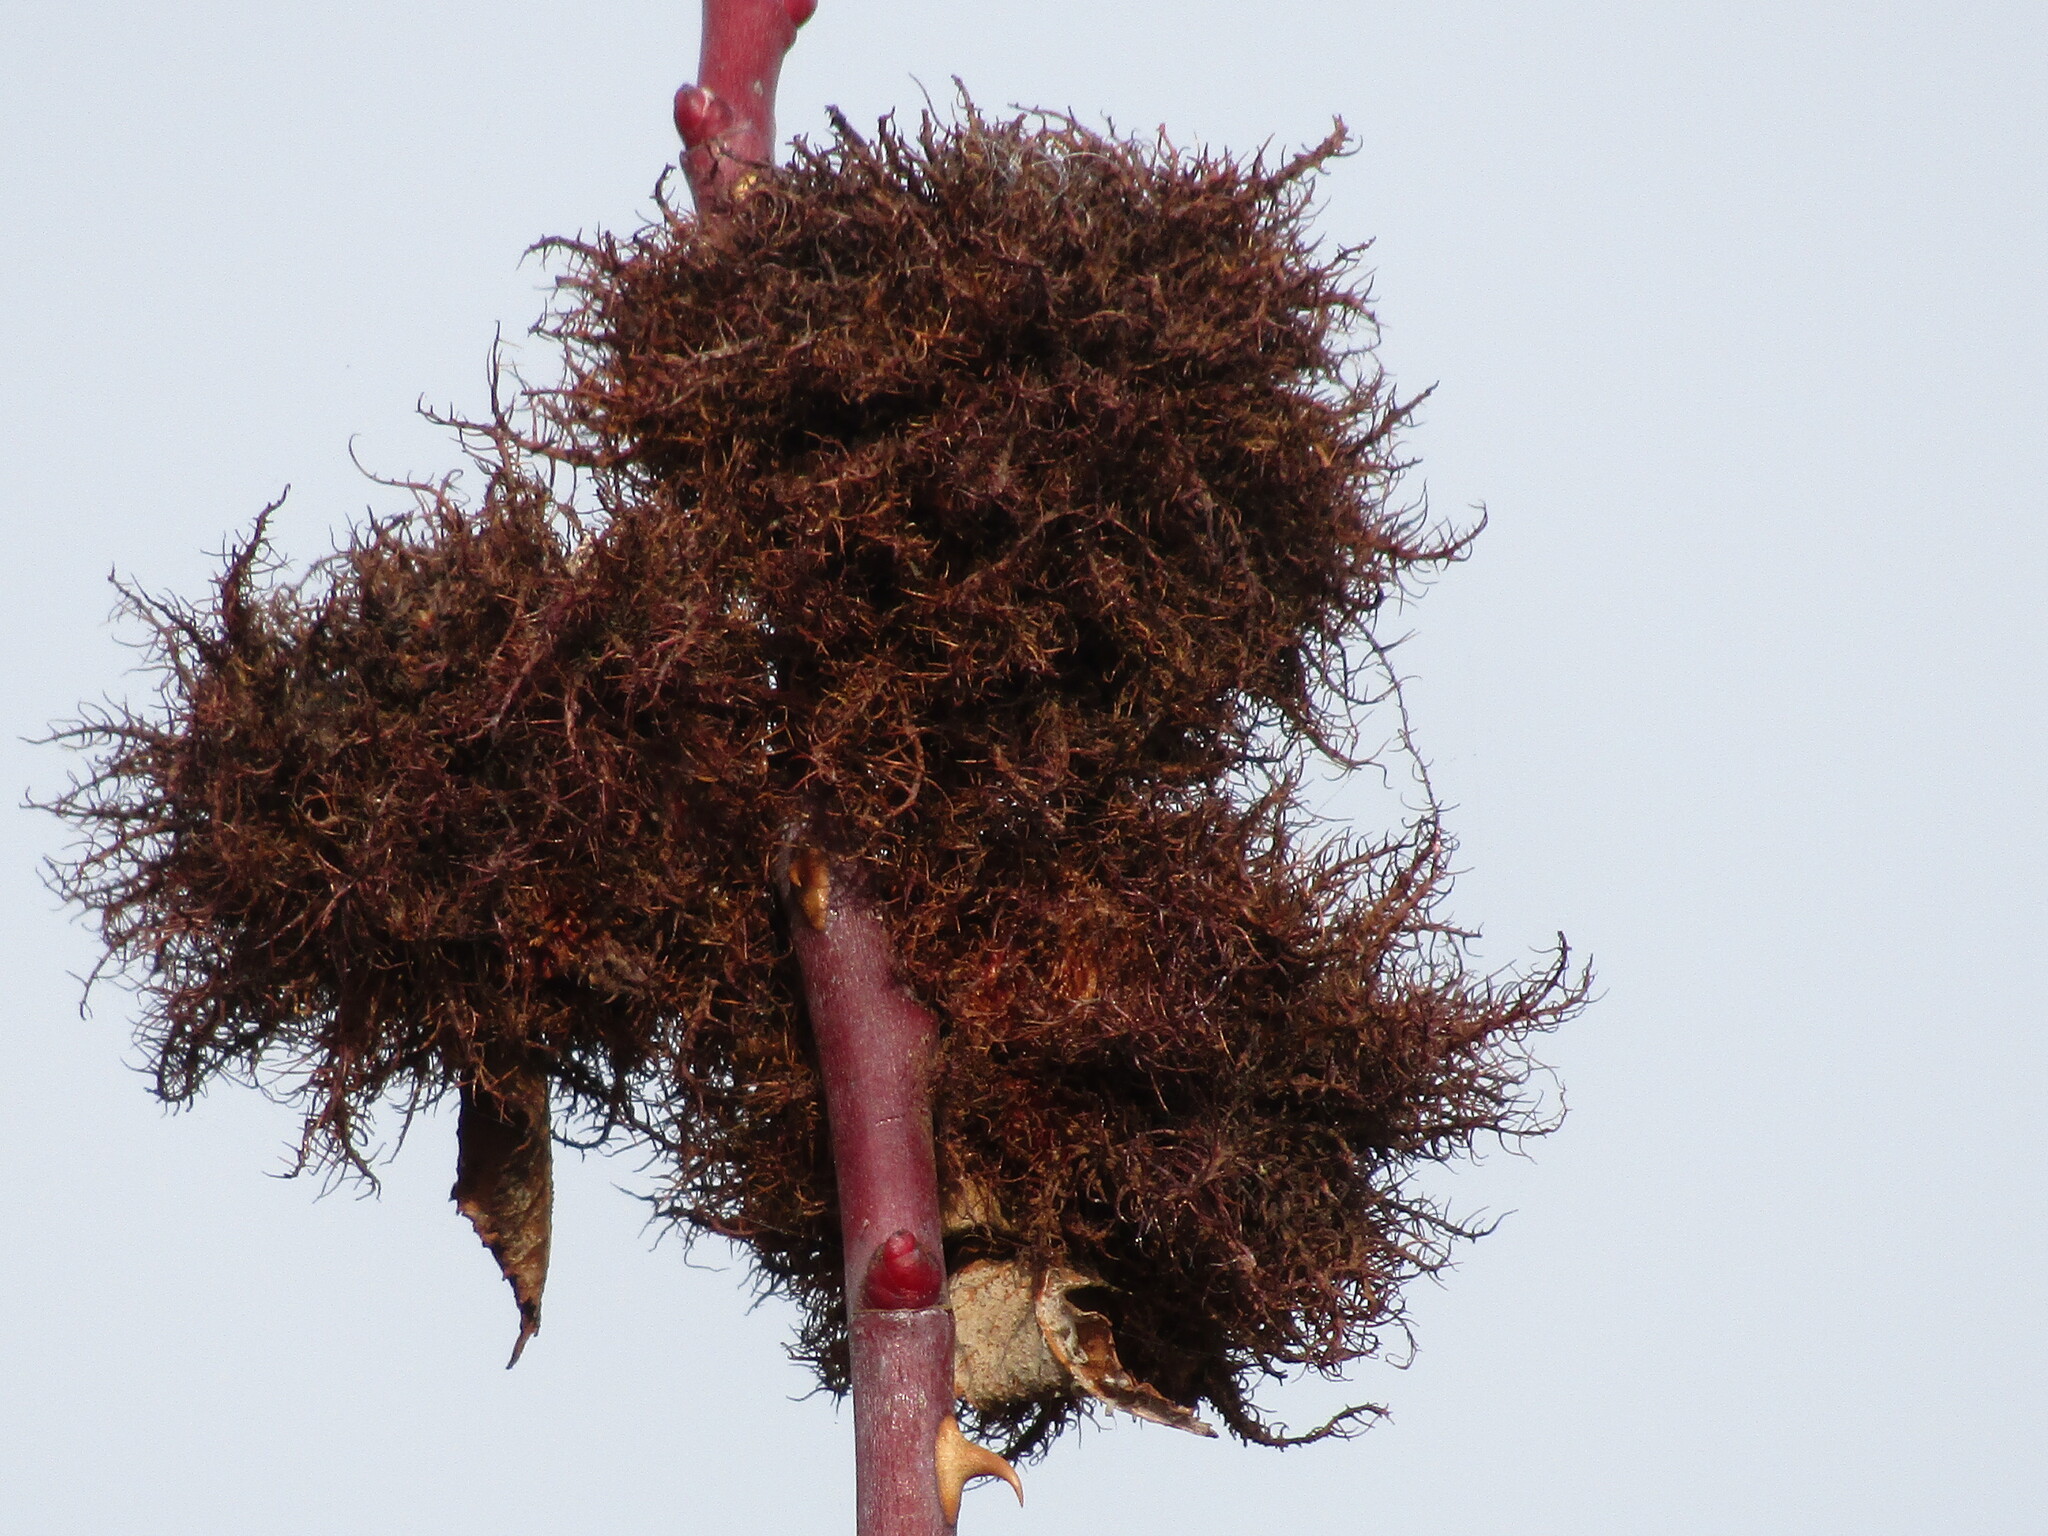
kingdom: Animalia
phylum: Arthropoda
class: Insecta
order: Hymenoptera
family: Cynipidae
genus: Diplolepis
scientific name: Diplolepis rosae
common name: Bedeguar gall
